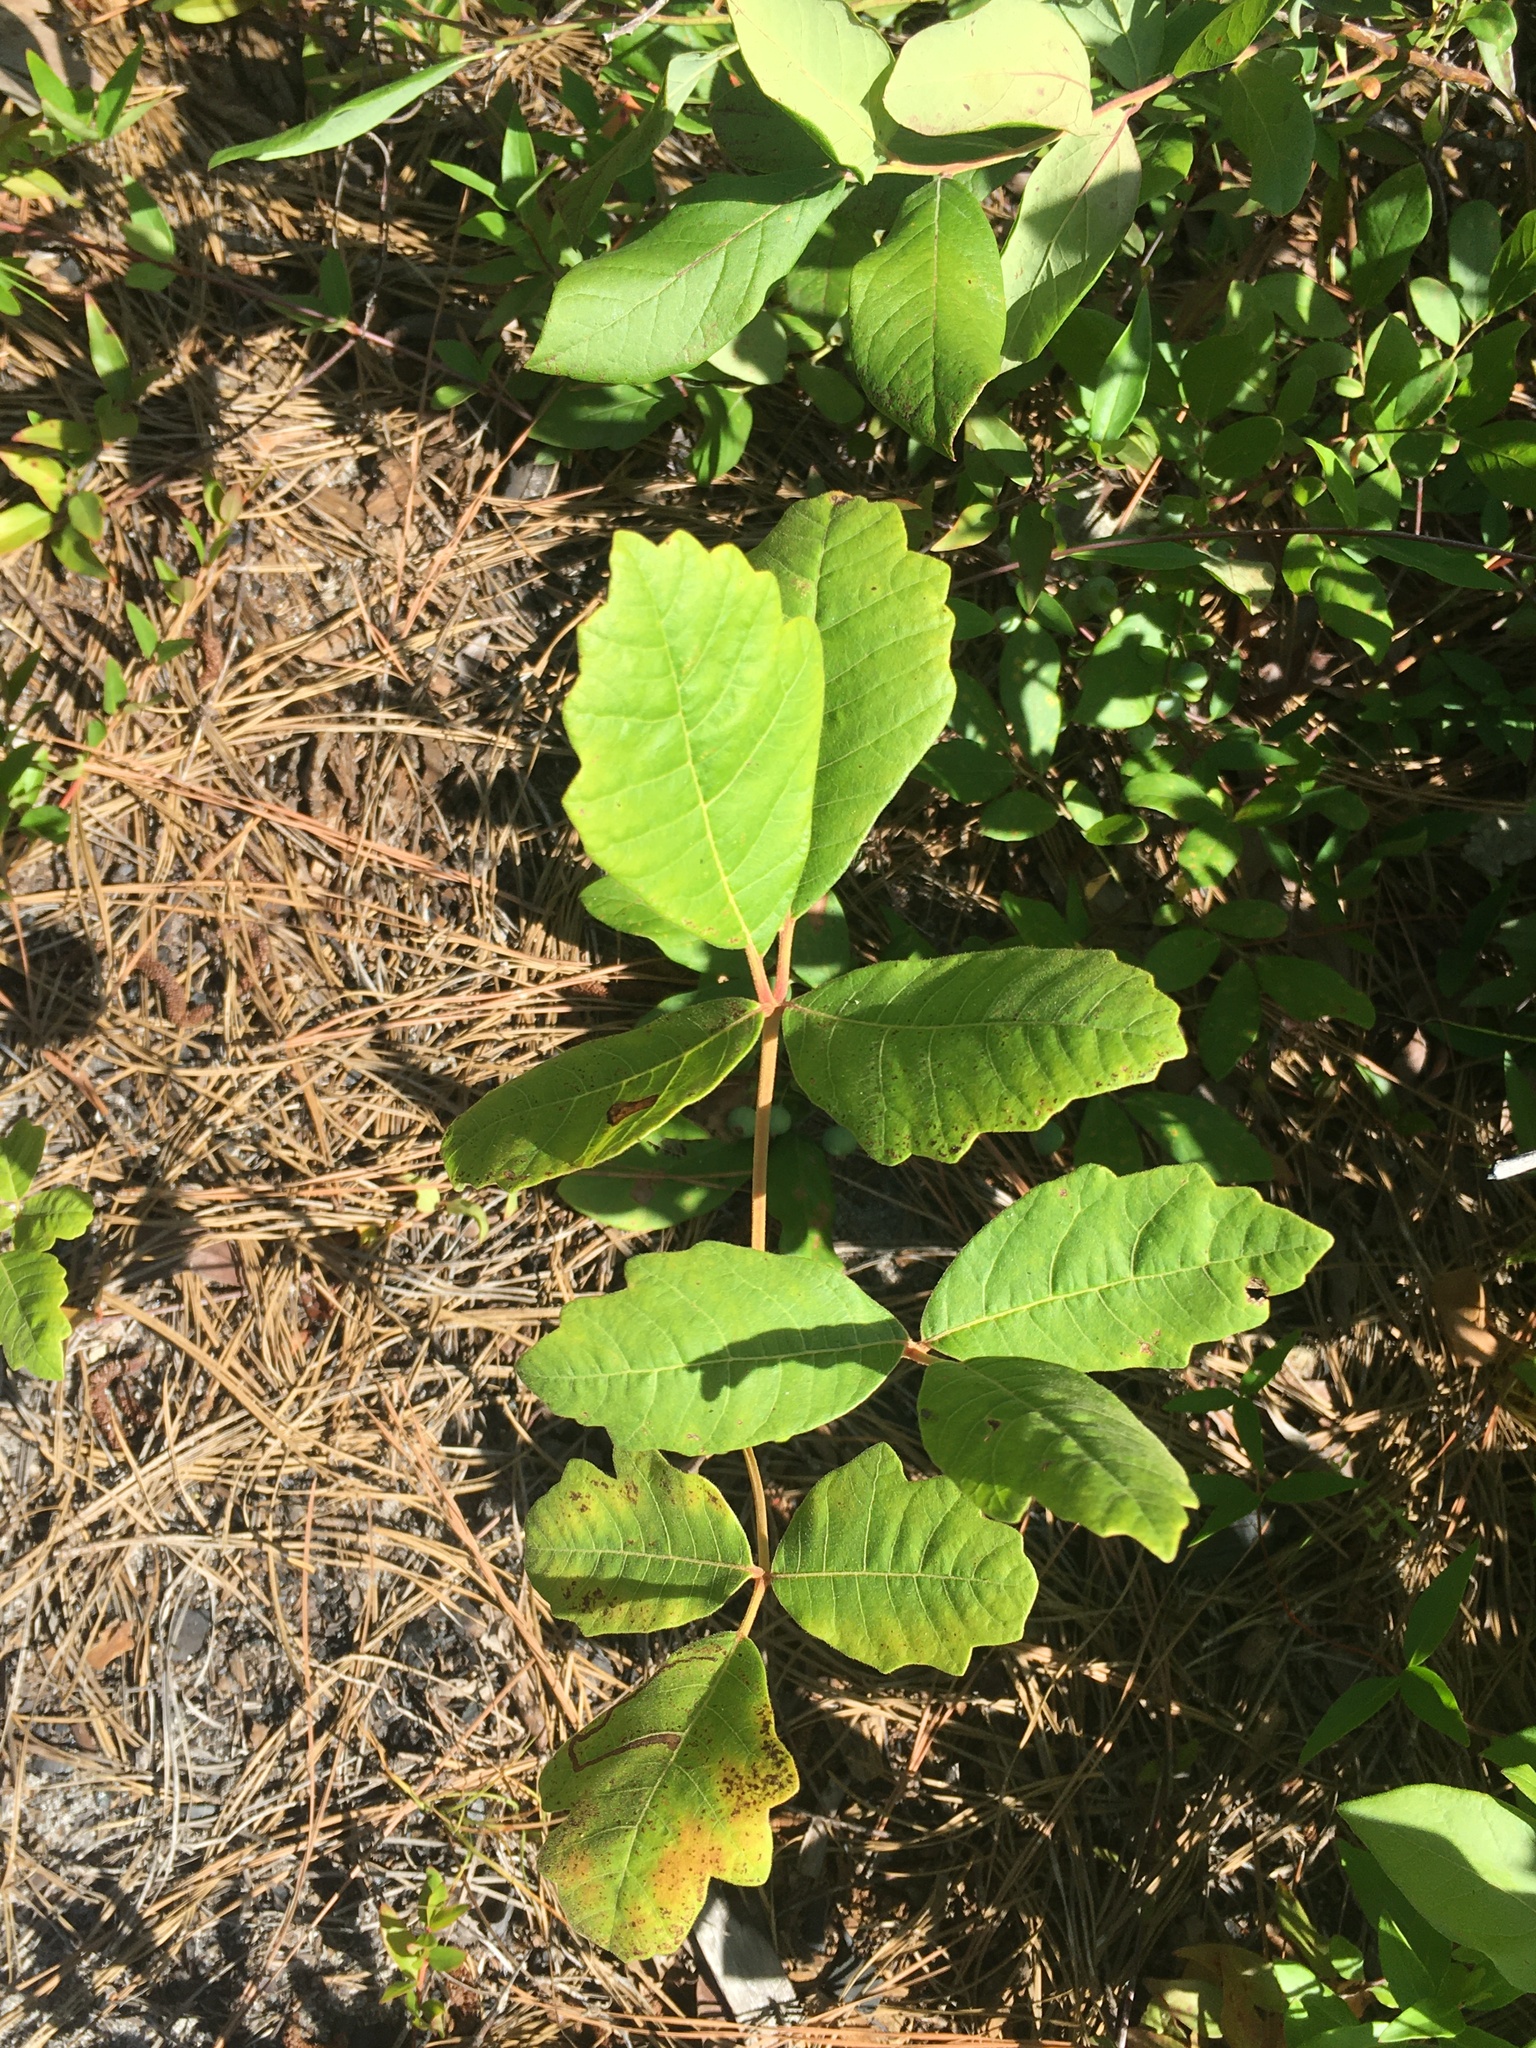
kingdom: Plantae
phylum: Tracheophyta
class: Magnoliopsida
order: Sapindales
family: Anacardiaceae
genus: Toxicodendron
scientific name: Toxicodendron pubescens
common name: Eastern poison-oak
